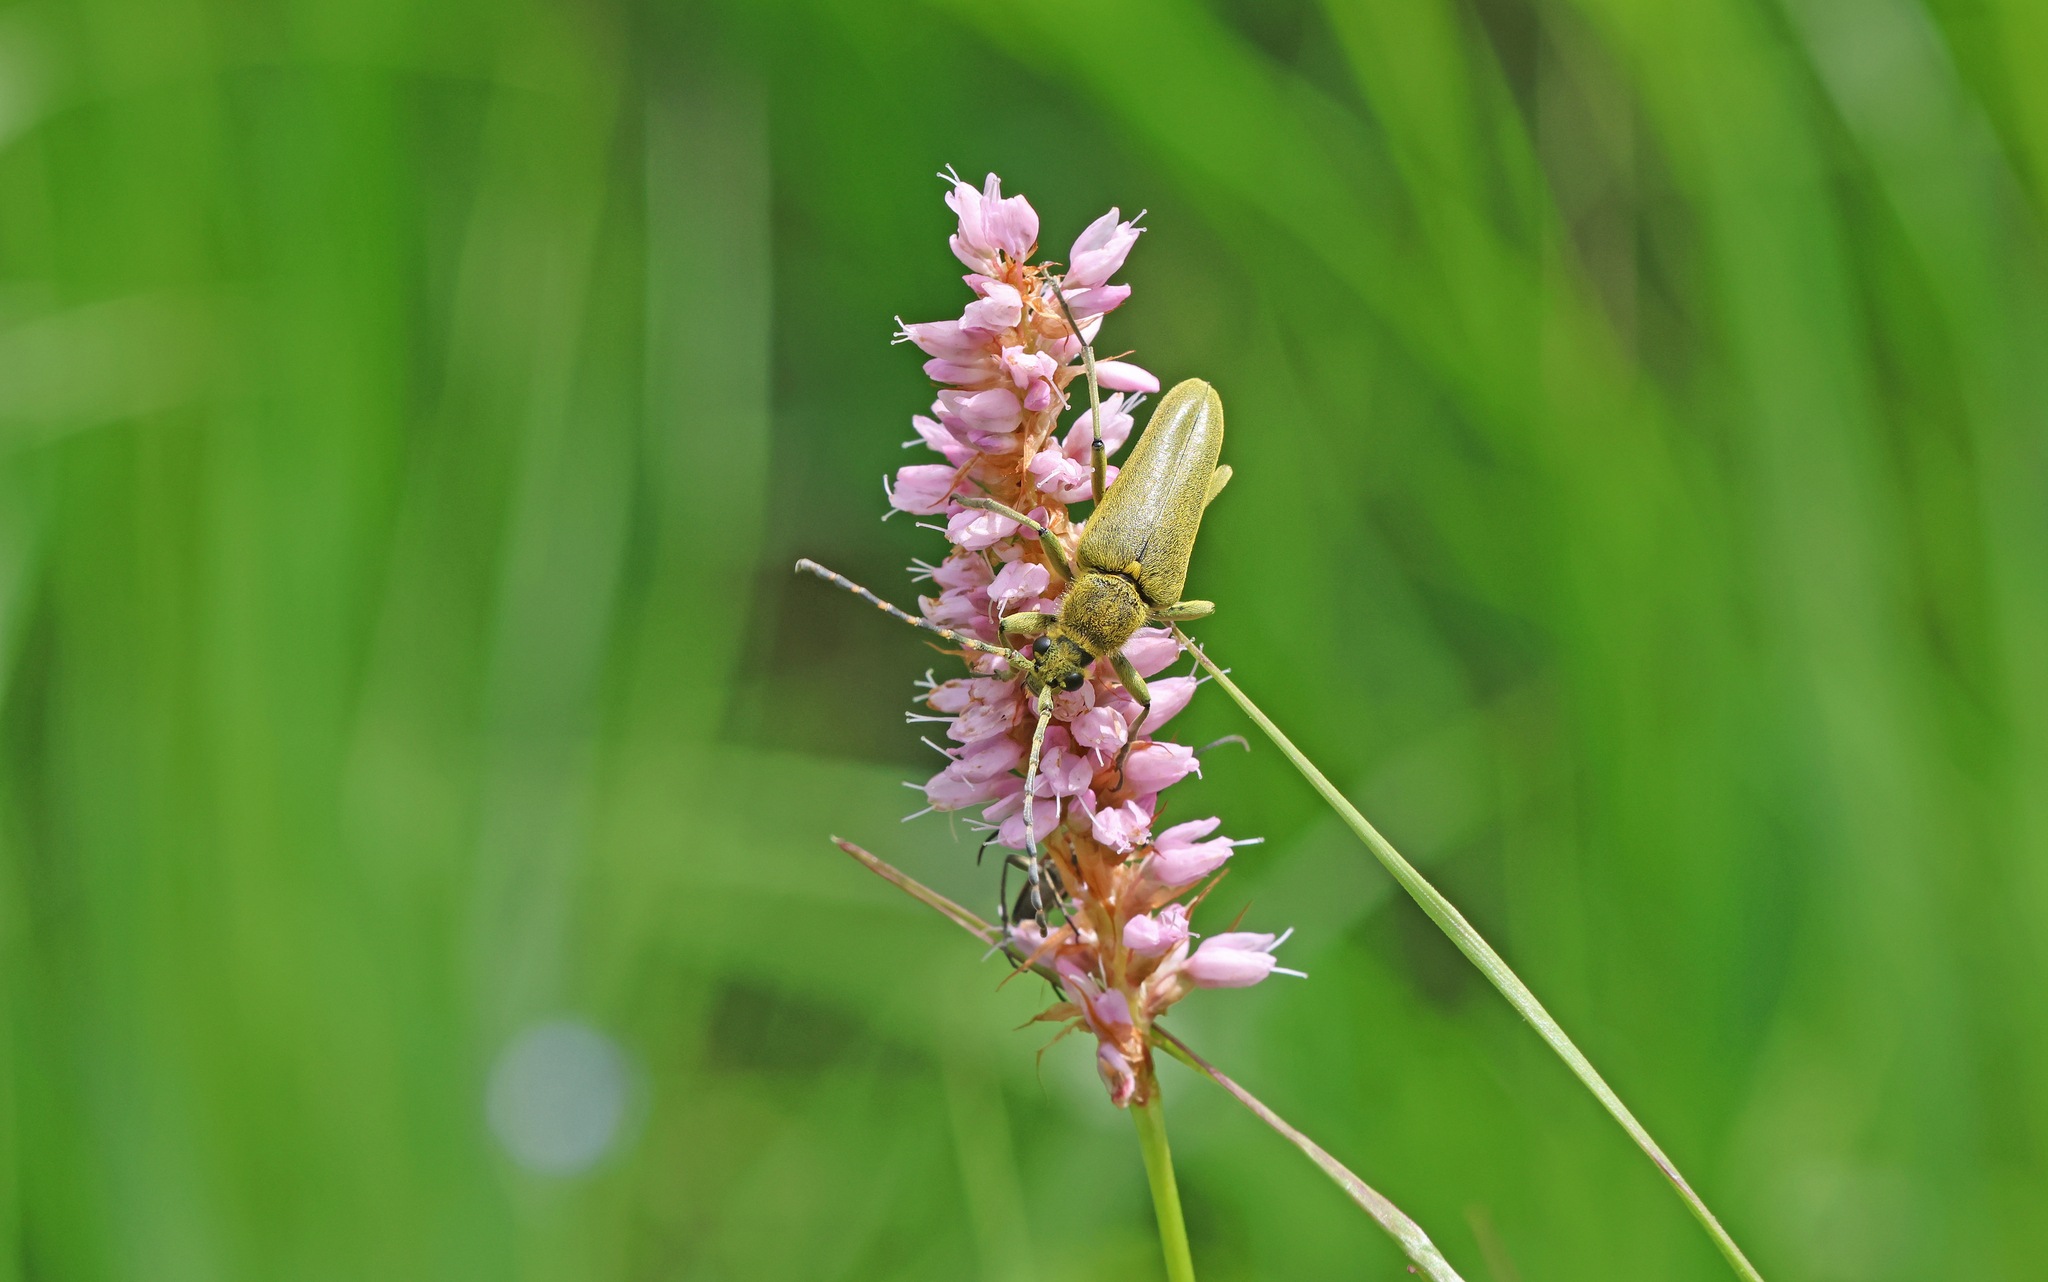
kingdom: Animalia
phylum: Arthropoda
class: Insecta
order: Coleoptera
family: Cerambycidae
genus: Lepturobosca
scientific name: Lepturobosca virens
